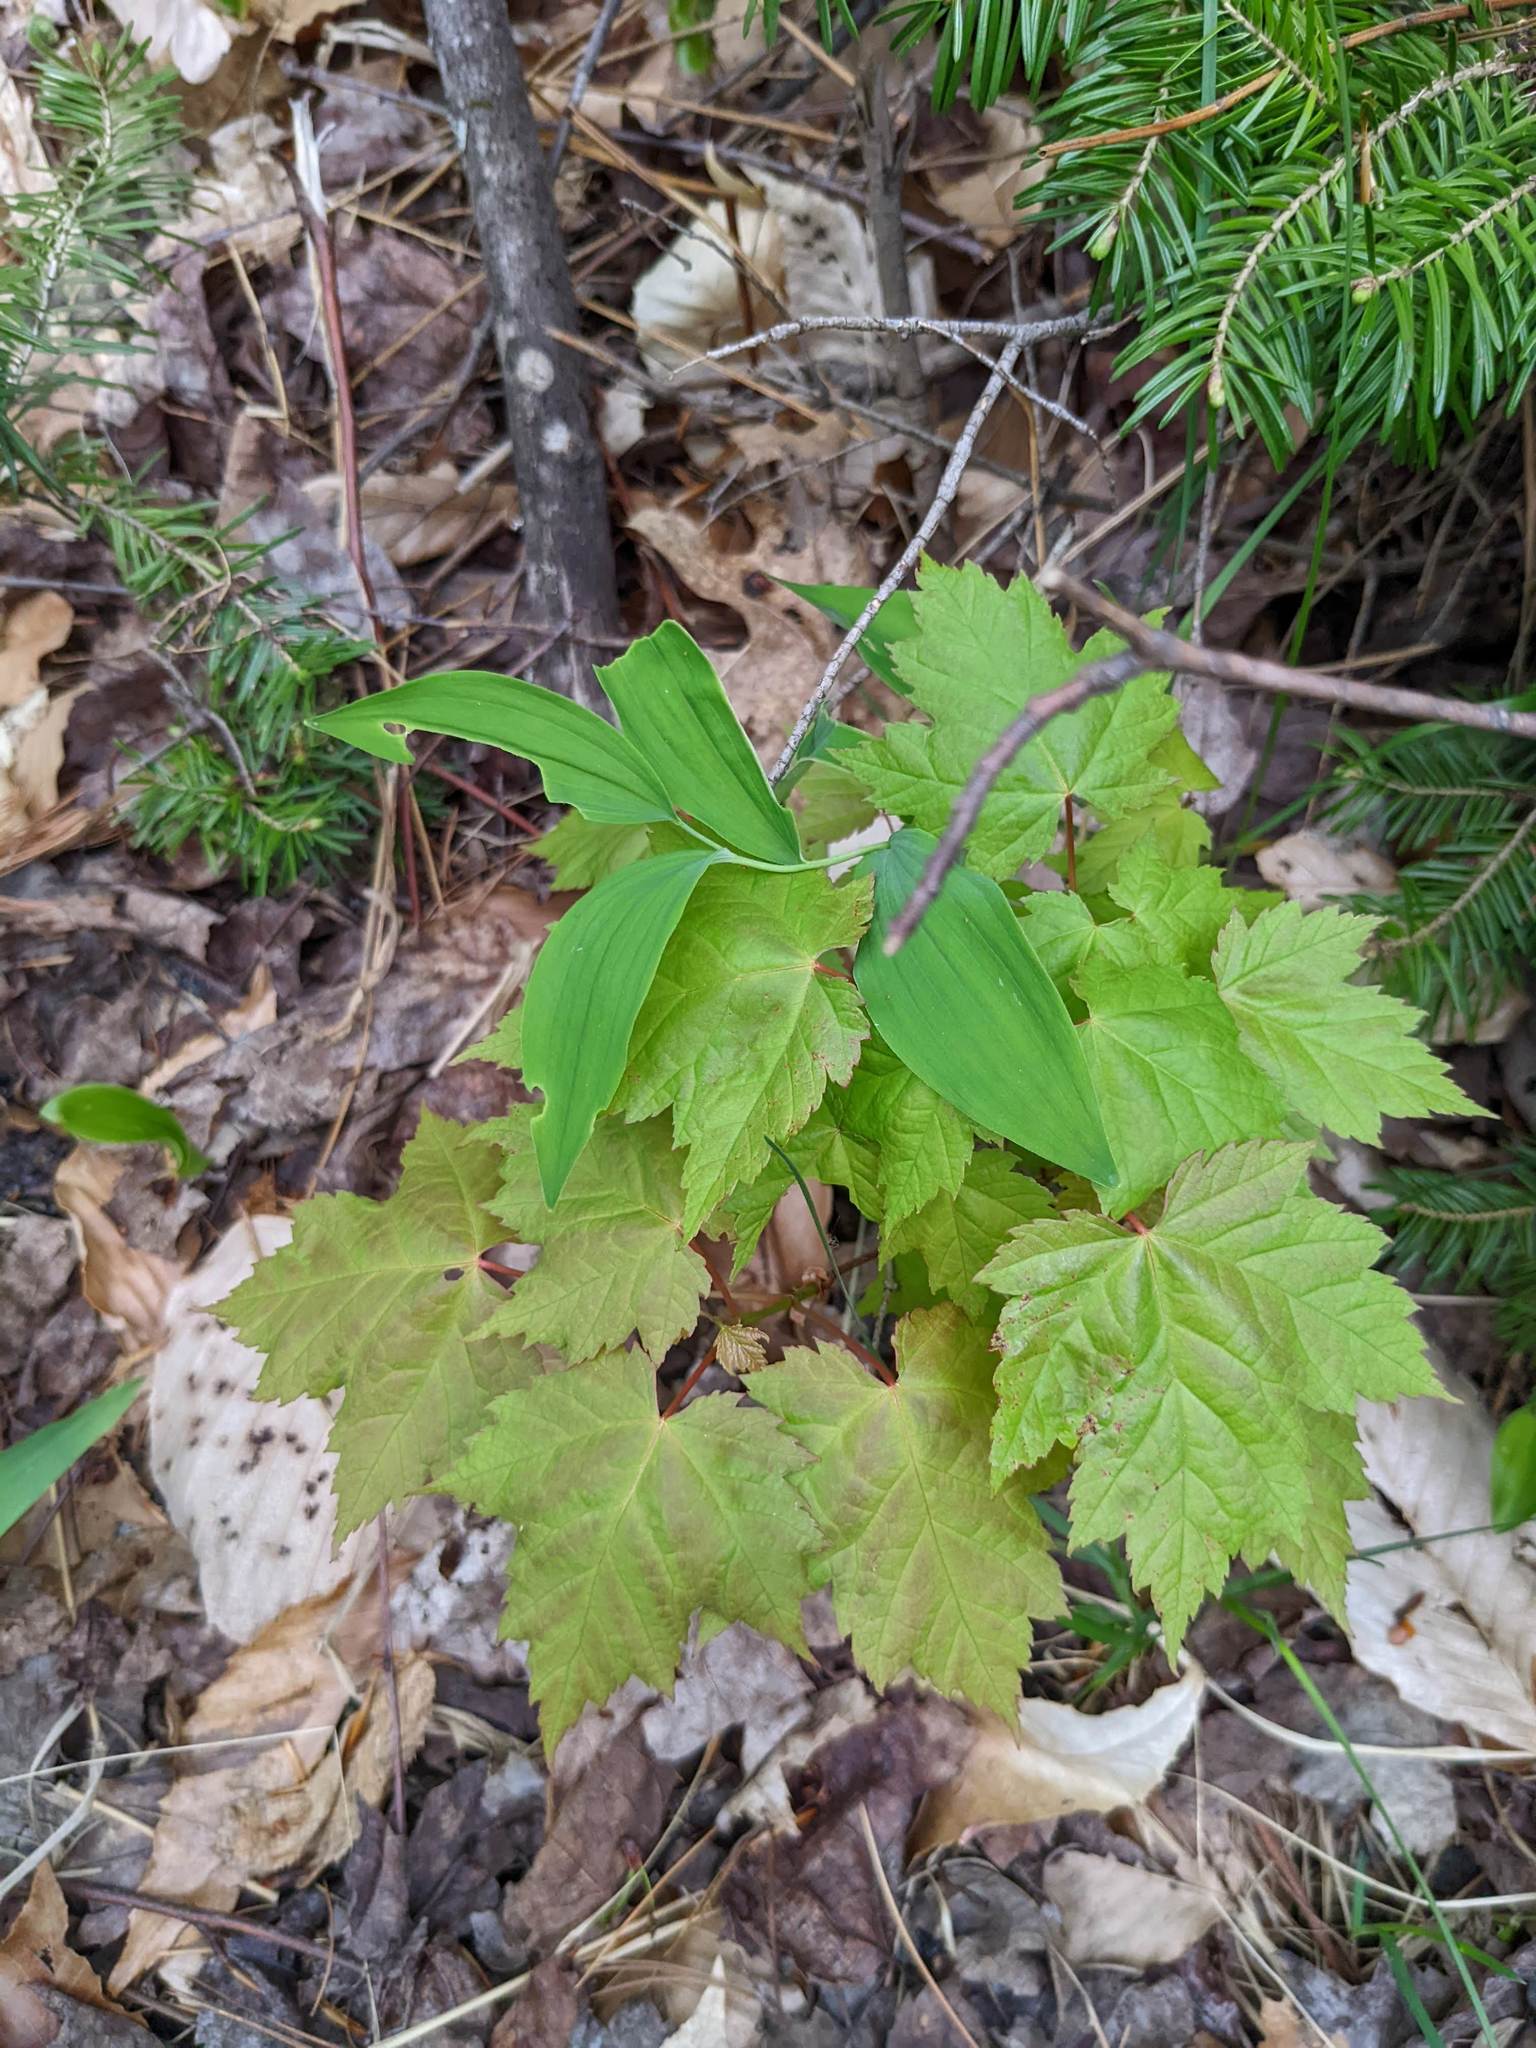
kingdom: Plantae
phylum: Tracheophyta
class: Magnoliopsida
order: Sapindales
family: Sapindaceae
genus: Acer
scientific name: Acer rubrum
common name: Red maple
